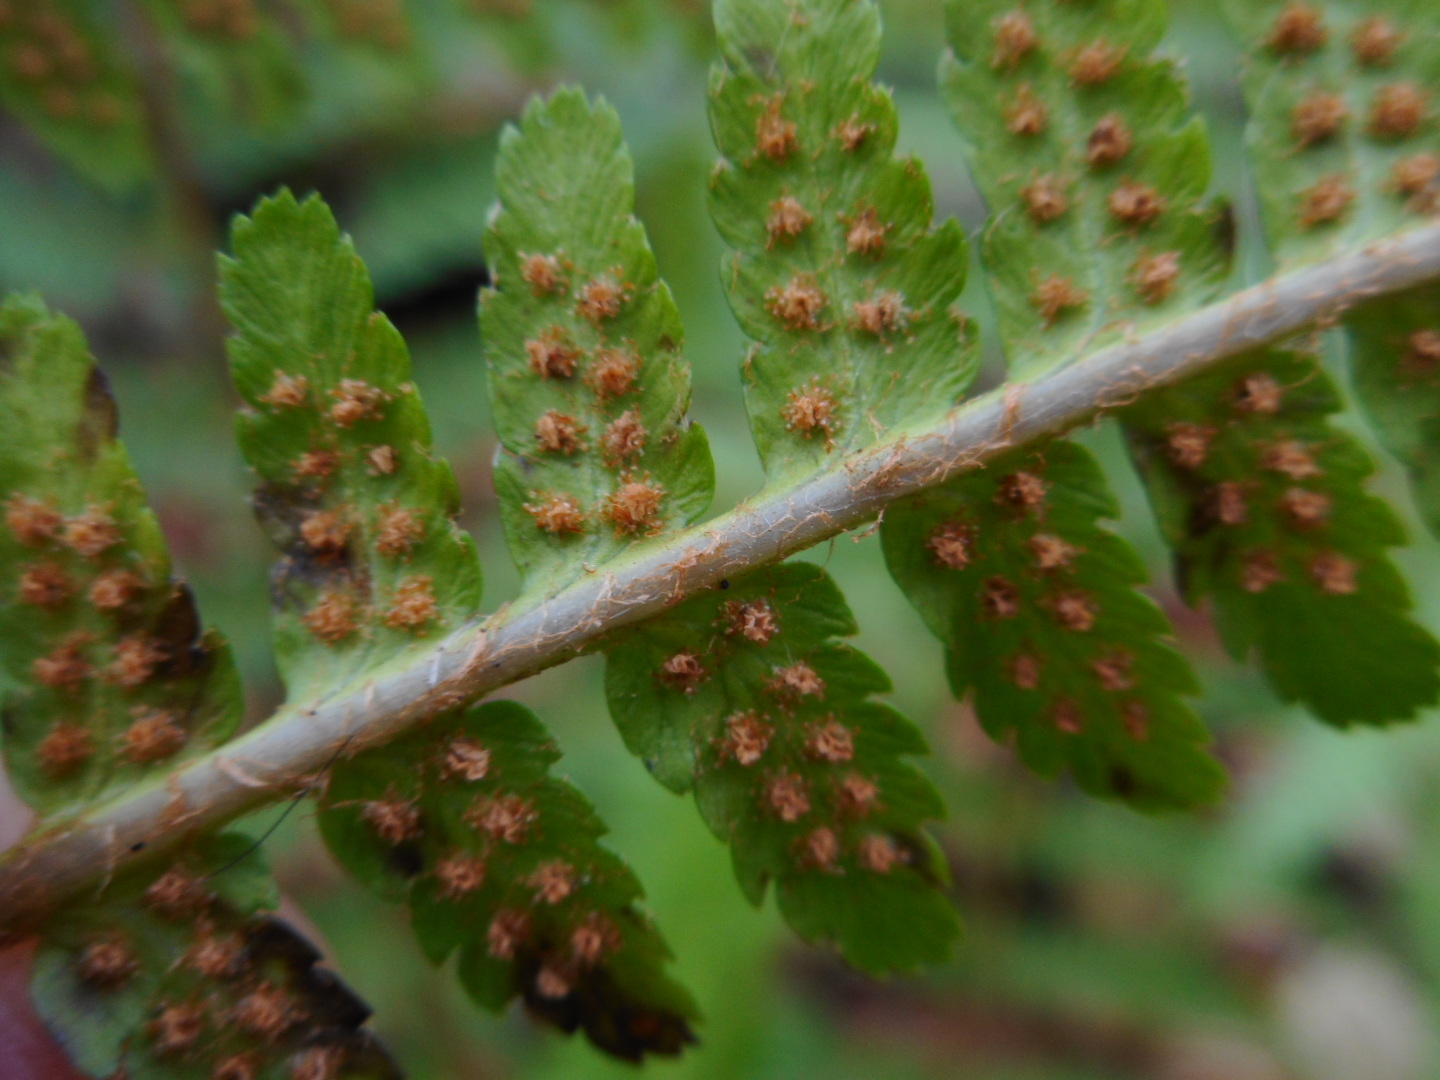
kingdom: Plantae
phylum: Tracheophyta
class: Polypodiopsida
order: Polypodiales
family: Dryopteridaceae
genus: Dryopteris
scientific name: Dryopteris filix-mas
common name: Male fern
